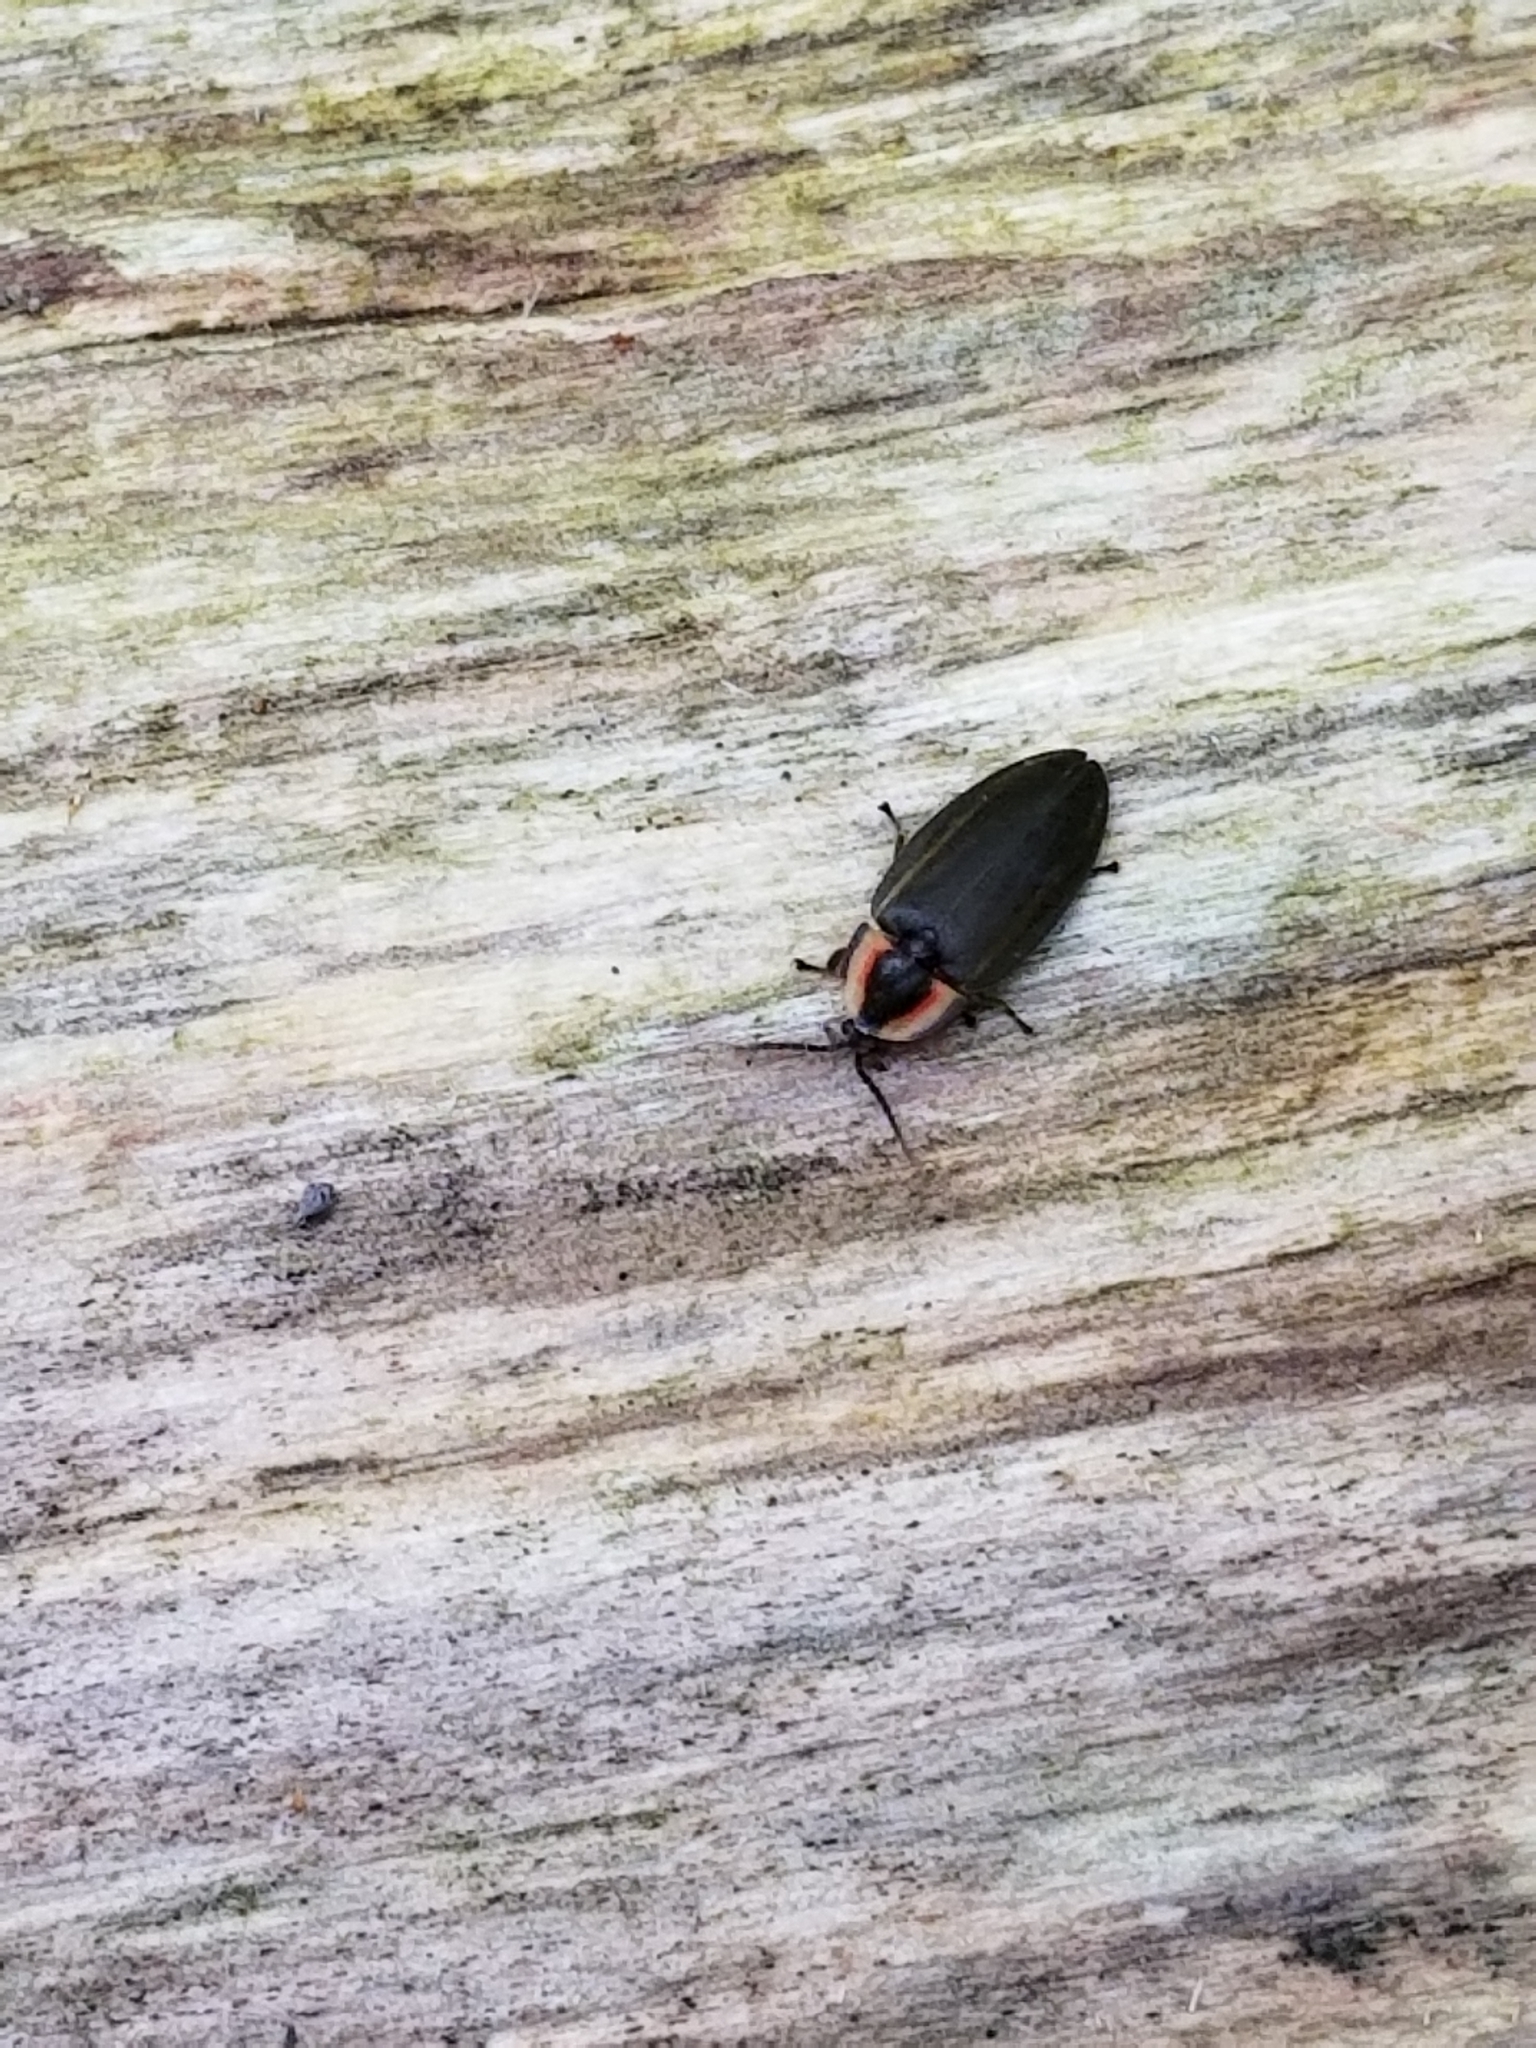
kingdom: Animalia
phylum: Arthropoda
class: Insecta
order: Coleoptera
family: Lampyridae
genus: Photinus
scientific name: Photinus corrusca
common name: Winter firefly
